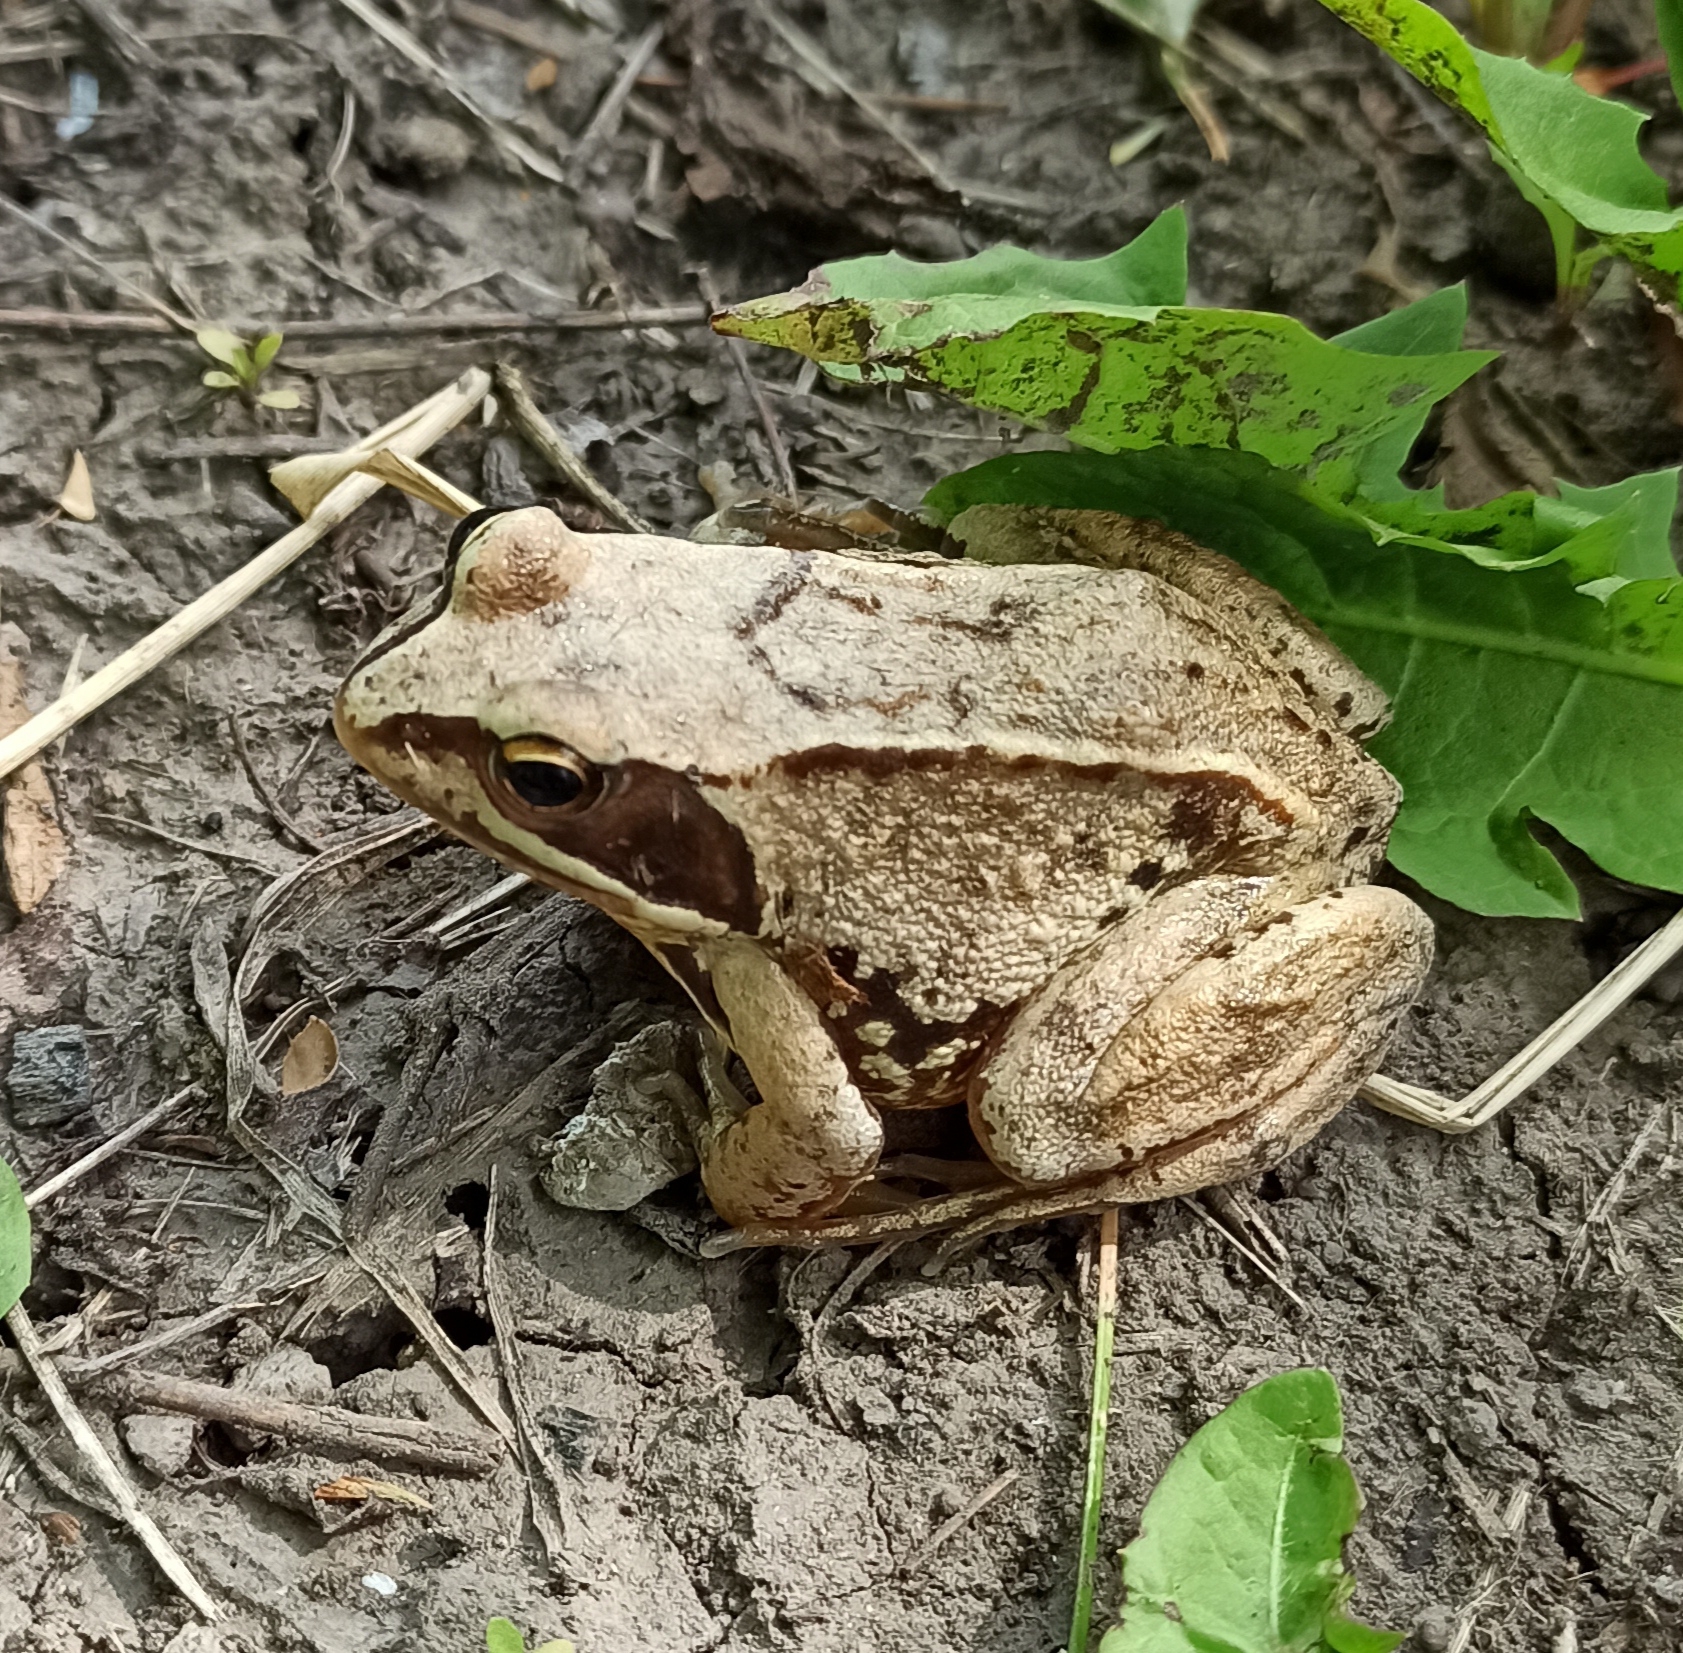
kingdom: Animalia
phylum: Chordata
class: Amphibia
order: Anura
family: Ranidae
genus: Rana
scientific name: Rana arvalis
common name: Moor frog
